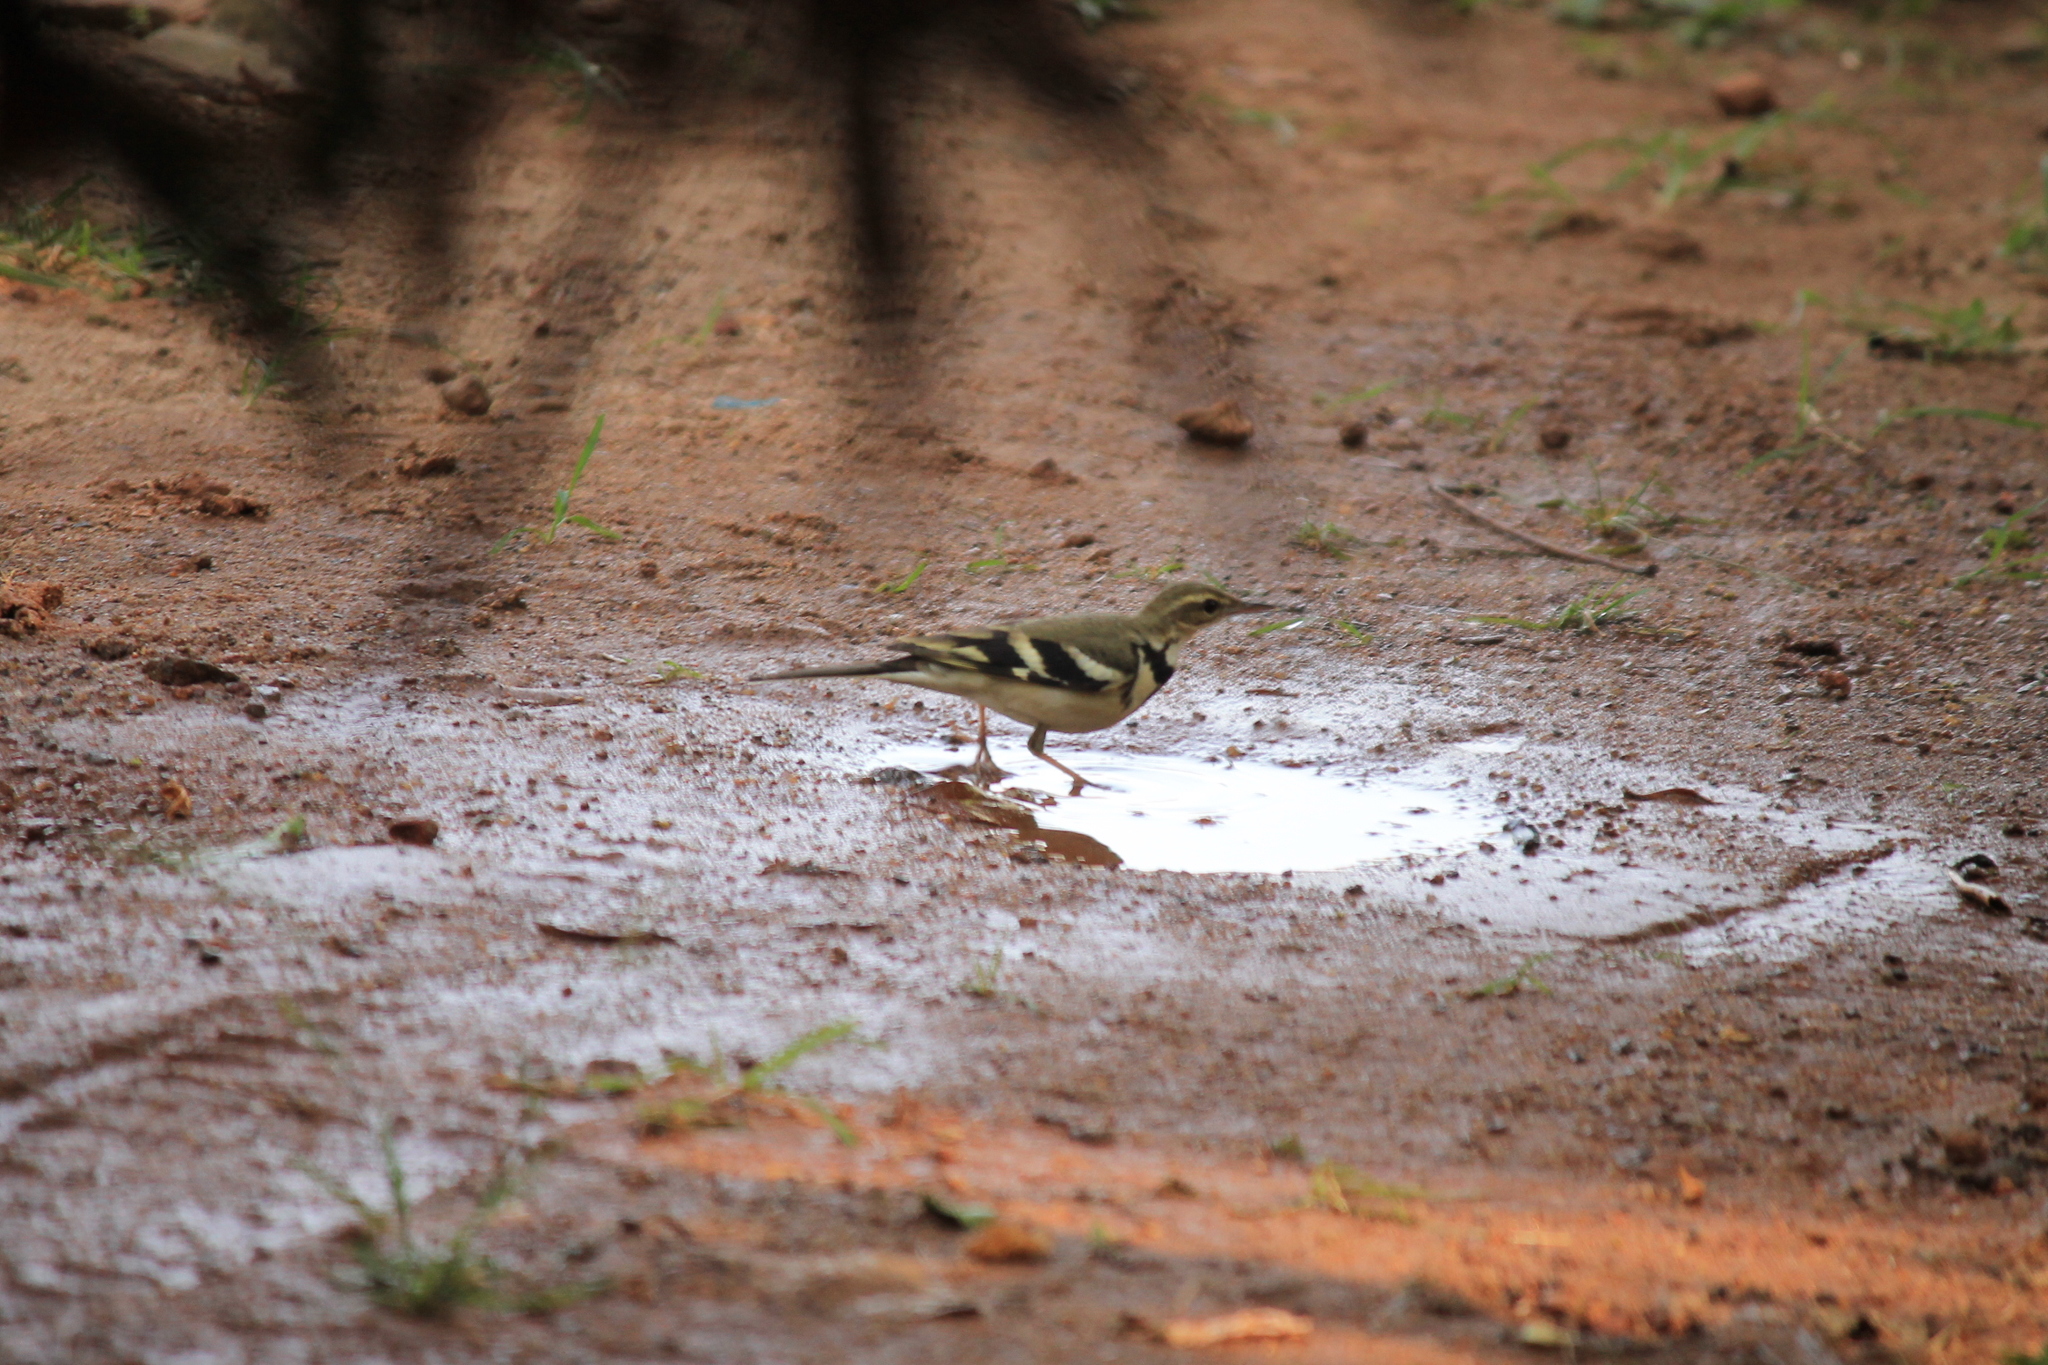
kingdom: Animalia
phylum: Chordata
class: Aves
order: Passeriformes
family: Motacillidae
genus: Dendronanthus
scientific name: Dendronanthus indicus
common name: Forest wagtail
